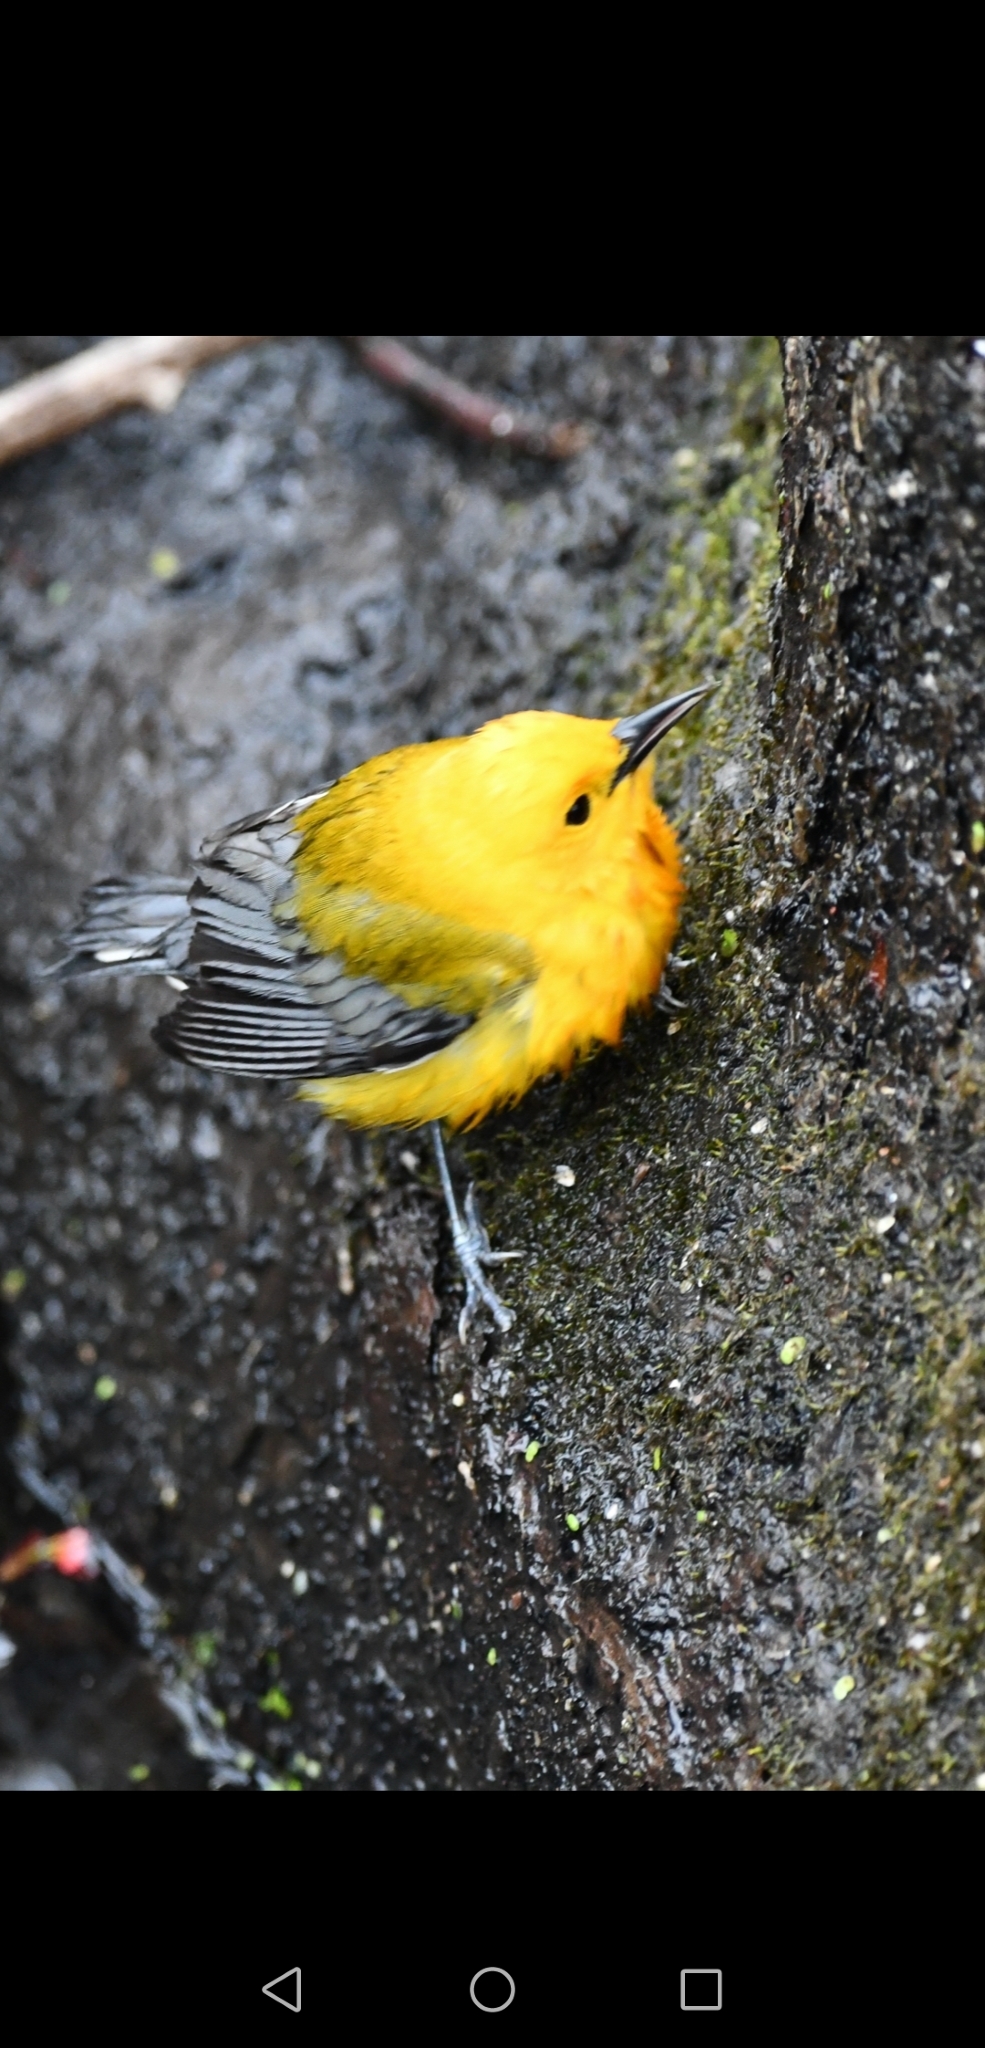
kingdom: Animalia
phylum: Chordata
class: Aves
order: Passeriformes
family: Parulidae
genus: Protonotaria
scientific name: Protonotaria citrea
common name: Prothonotary warbler
